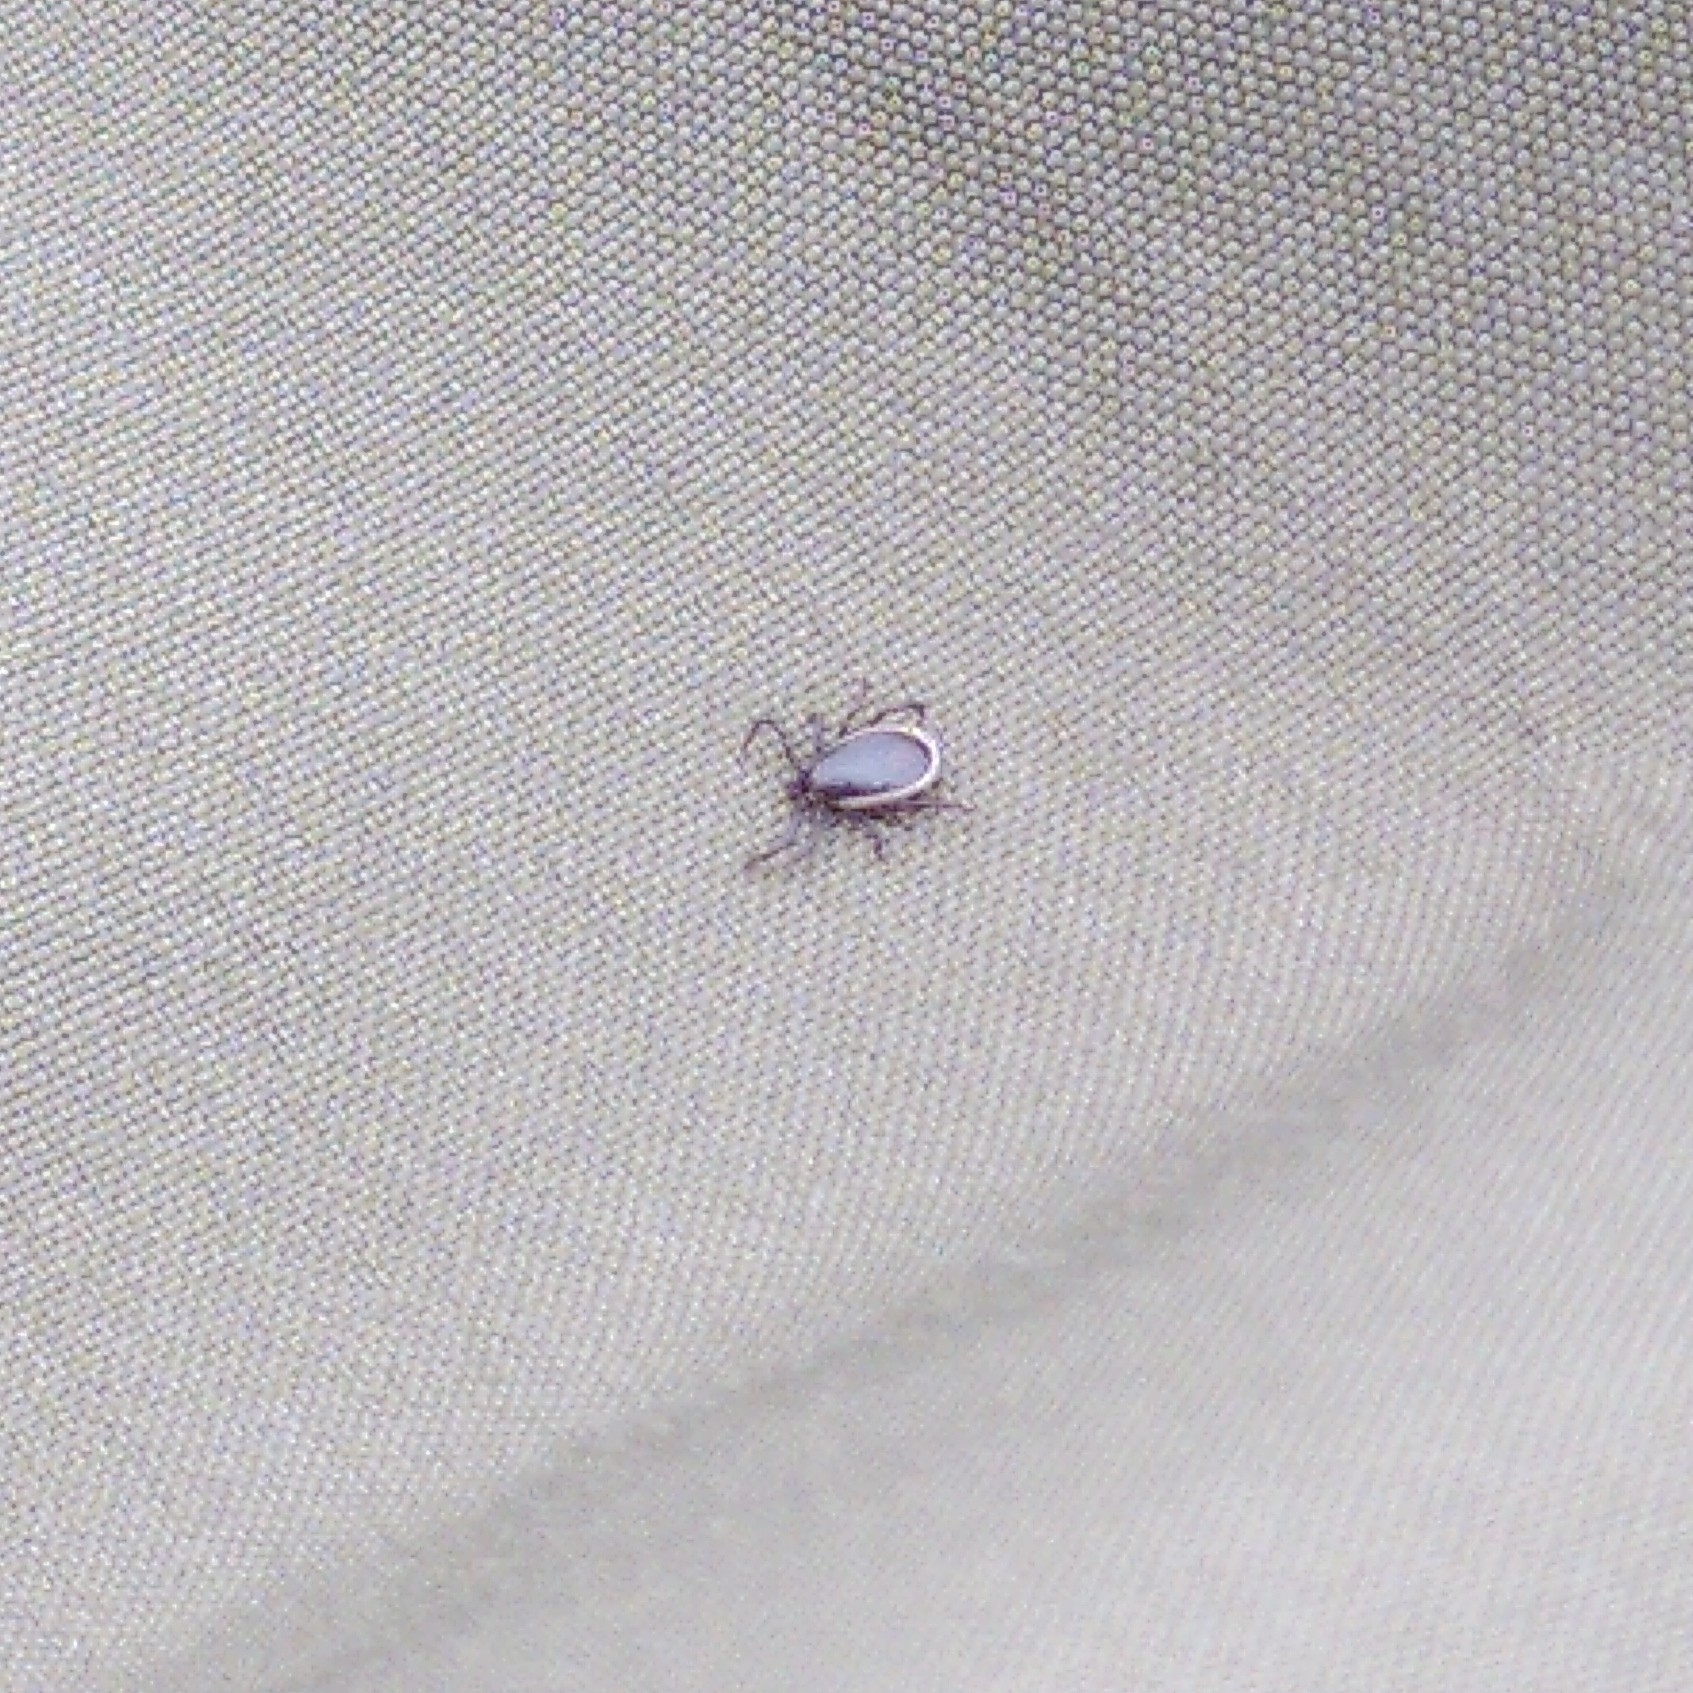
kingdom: Animalia
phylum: Arthropoda
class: Arachnida
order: Ixodida
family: Ixodidae
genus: Ixodes
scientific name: Ixodes ricinus
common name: Castor bean tick
